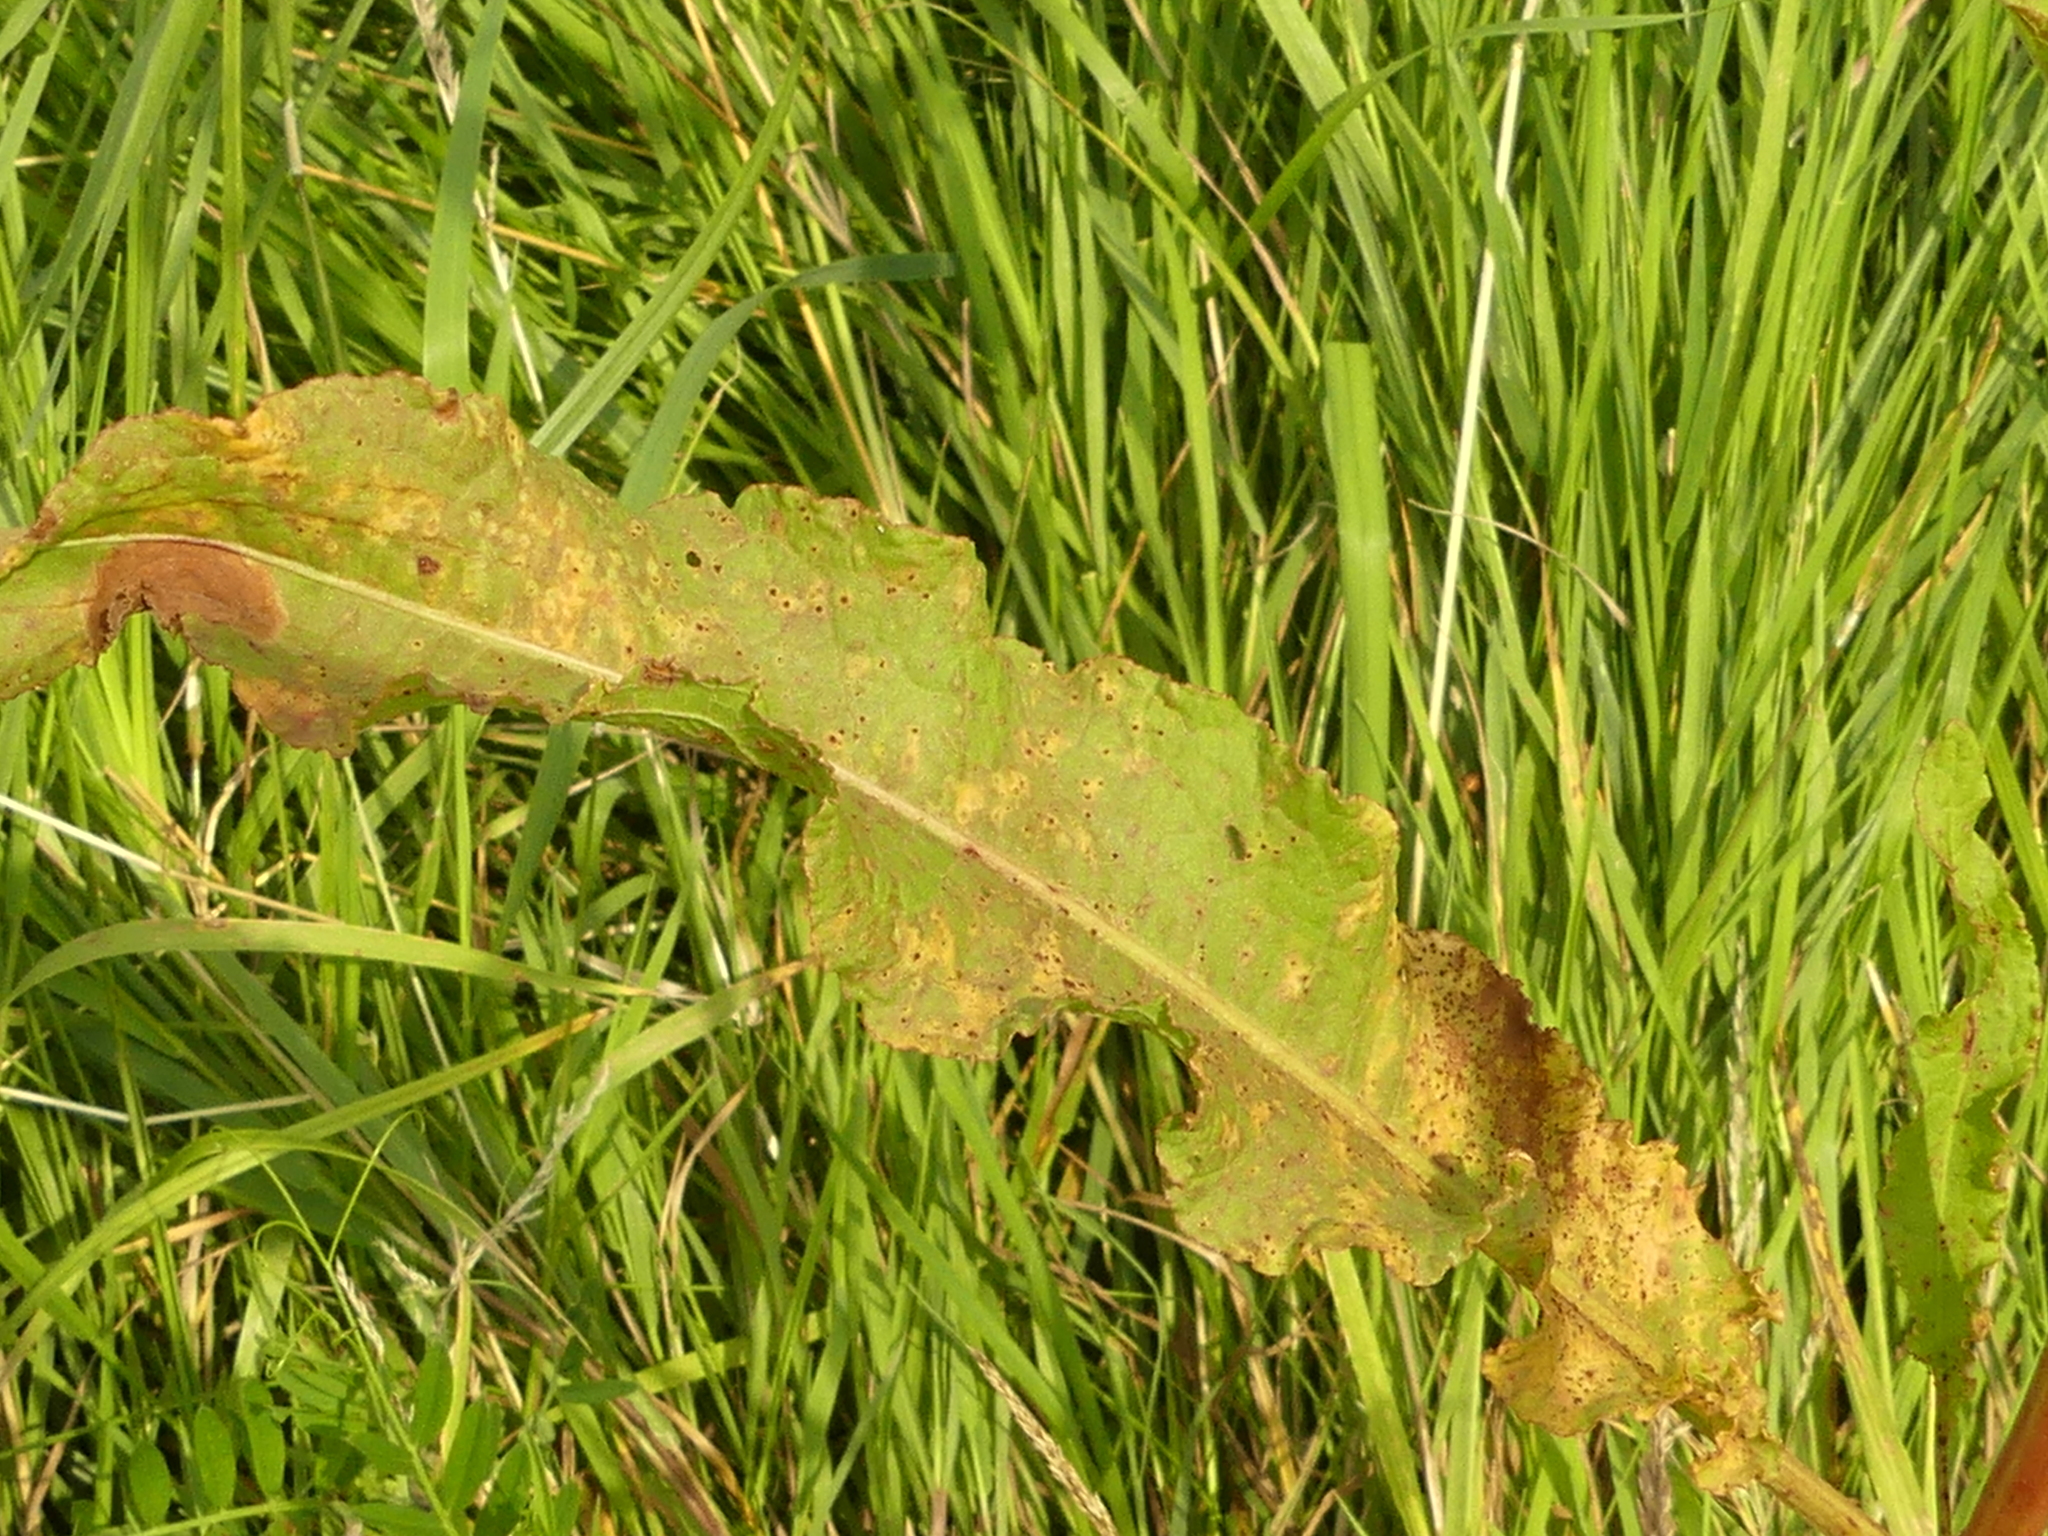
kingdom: Plantae
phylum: Tracheophyta
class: Magnoliopsida
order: Caryophyllales
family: Polygonaceae
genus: Rumex
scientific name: Rumex crispus
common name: Curled dock
